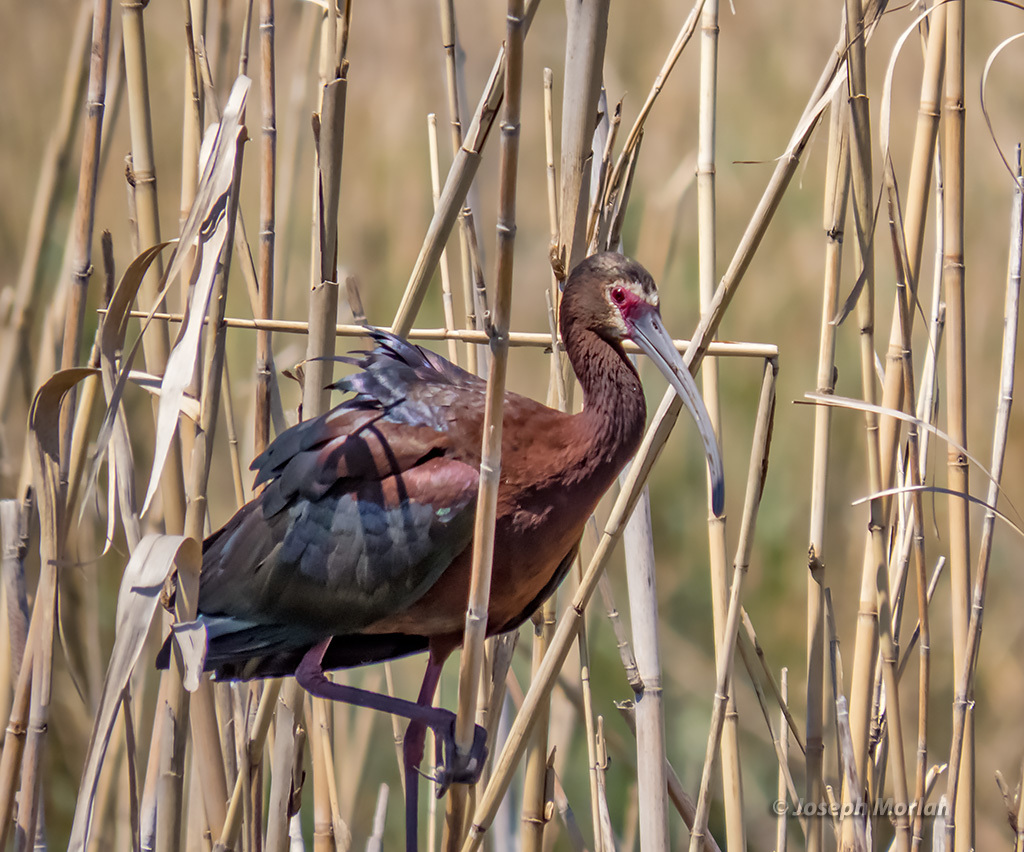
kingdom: Animalia
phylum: Chordata
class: Aves
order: Pelecaniformes
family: Threskiornithidae
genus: Plegadis
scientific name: Plegadis chihi
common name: White-faced ibis
